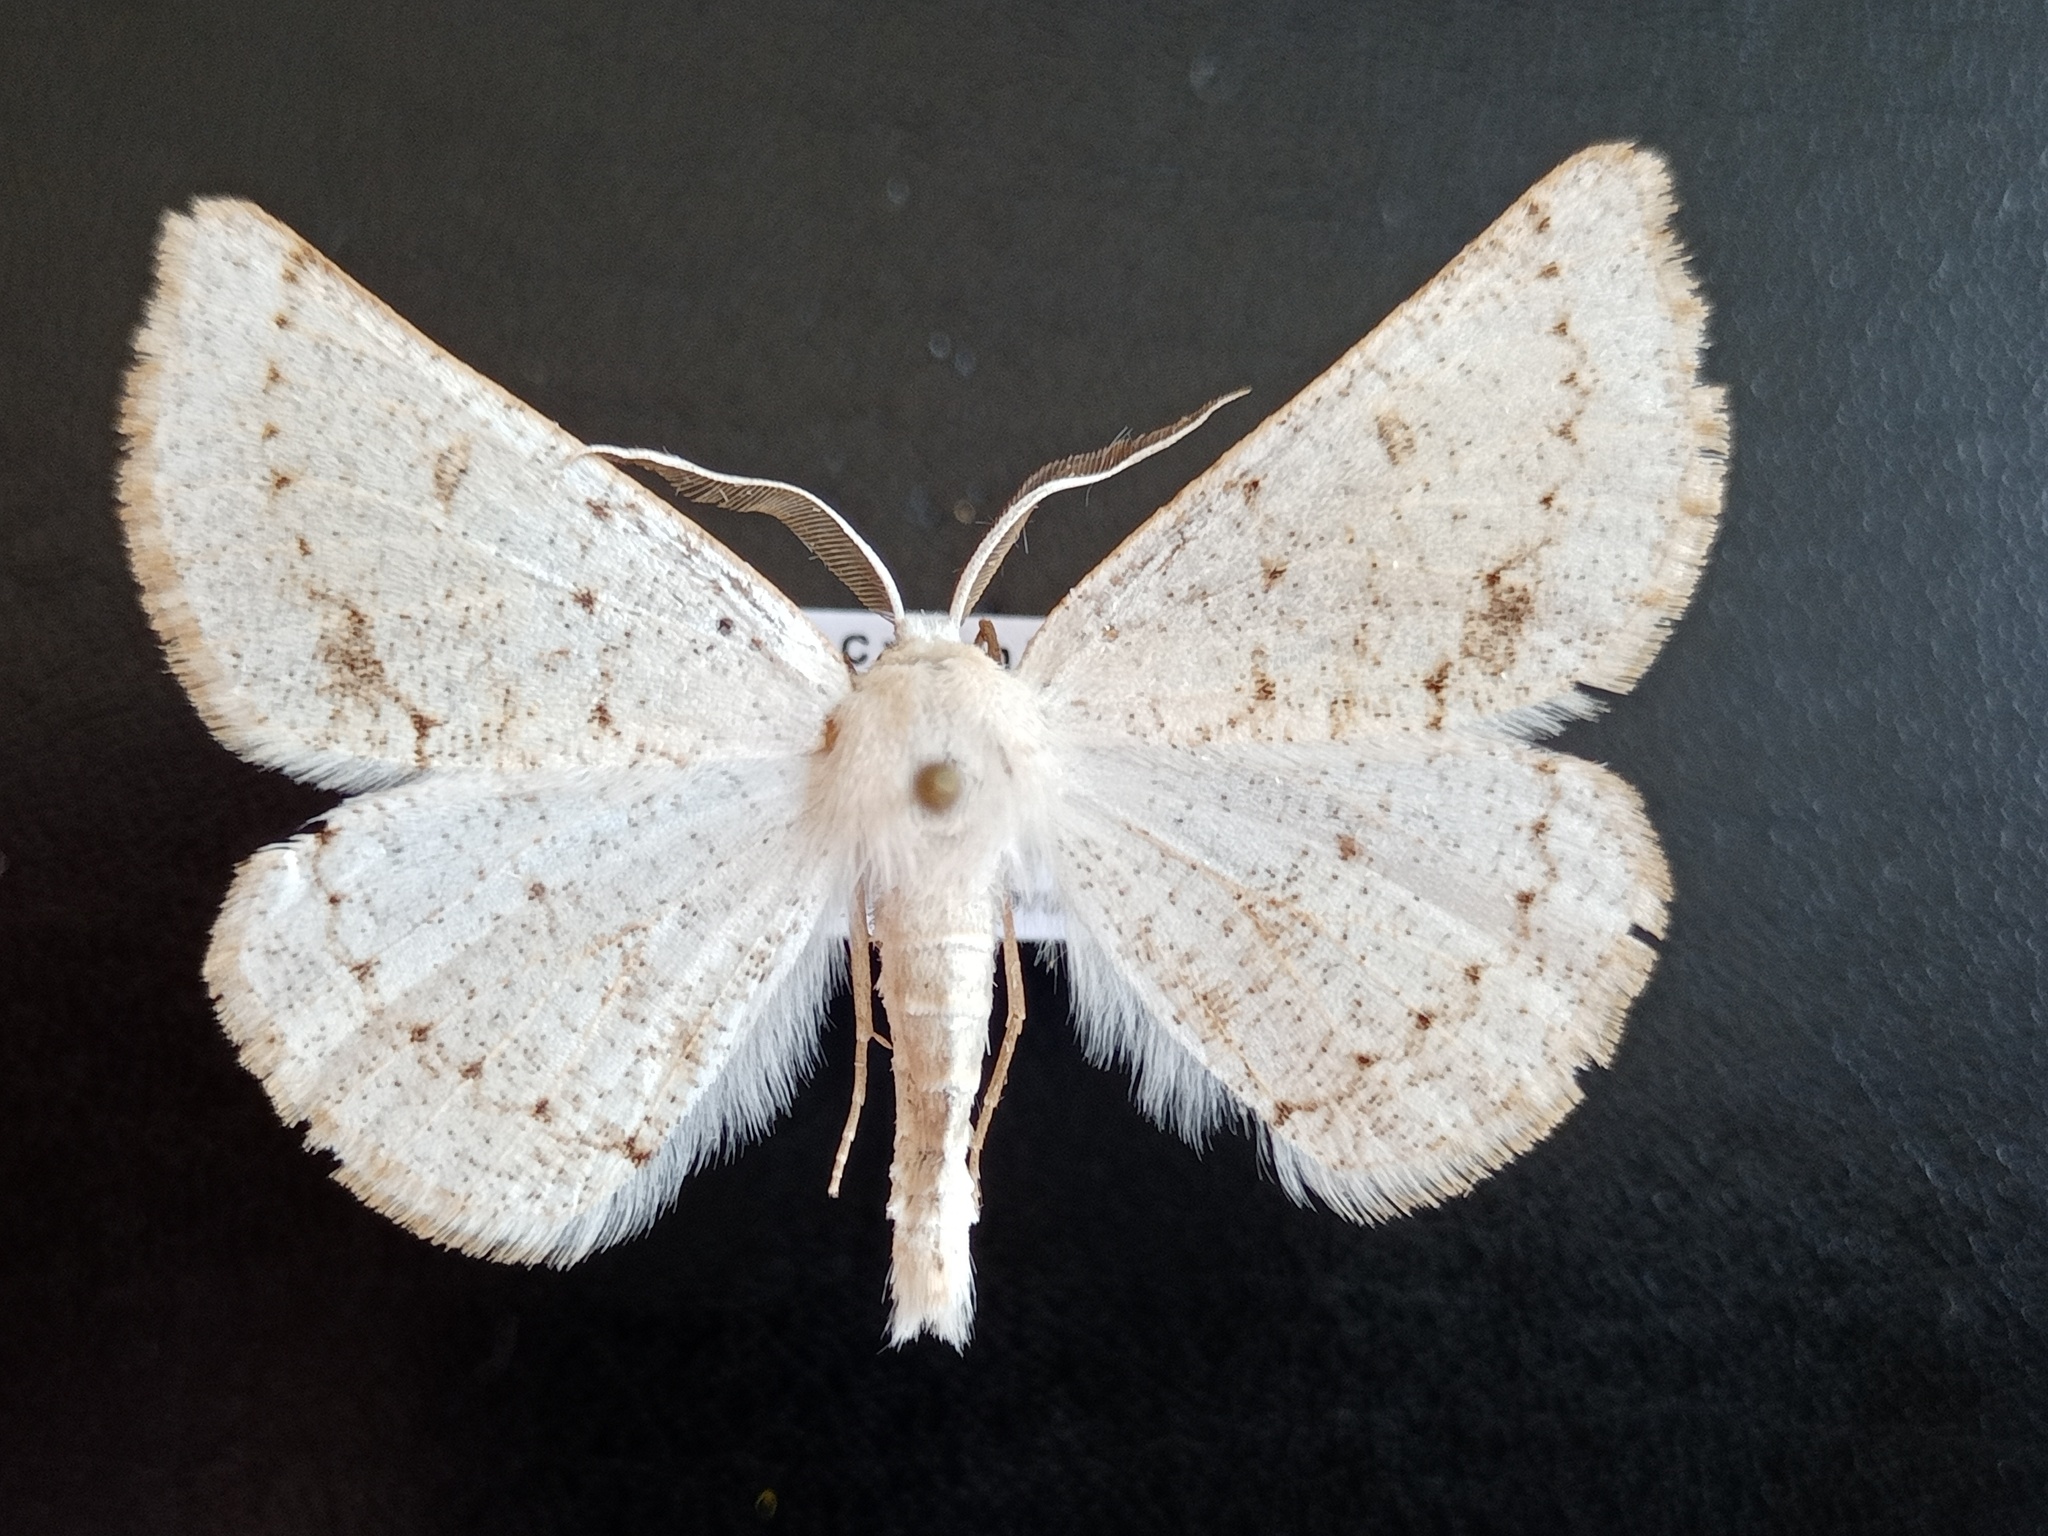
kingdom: Animalia
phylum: Arthropoda
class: Insecta
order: Lepidoptera
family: Geometridae
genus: Dyscia
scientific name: Dyscia conspersaria
